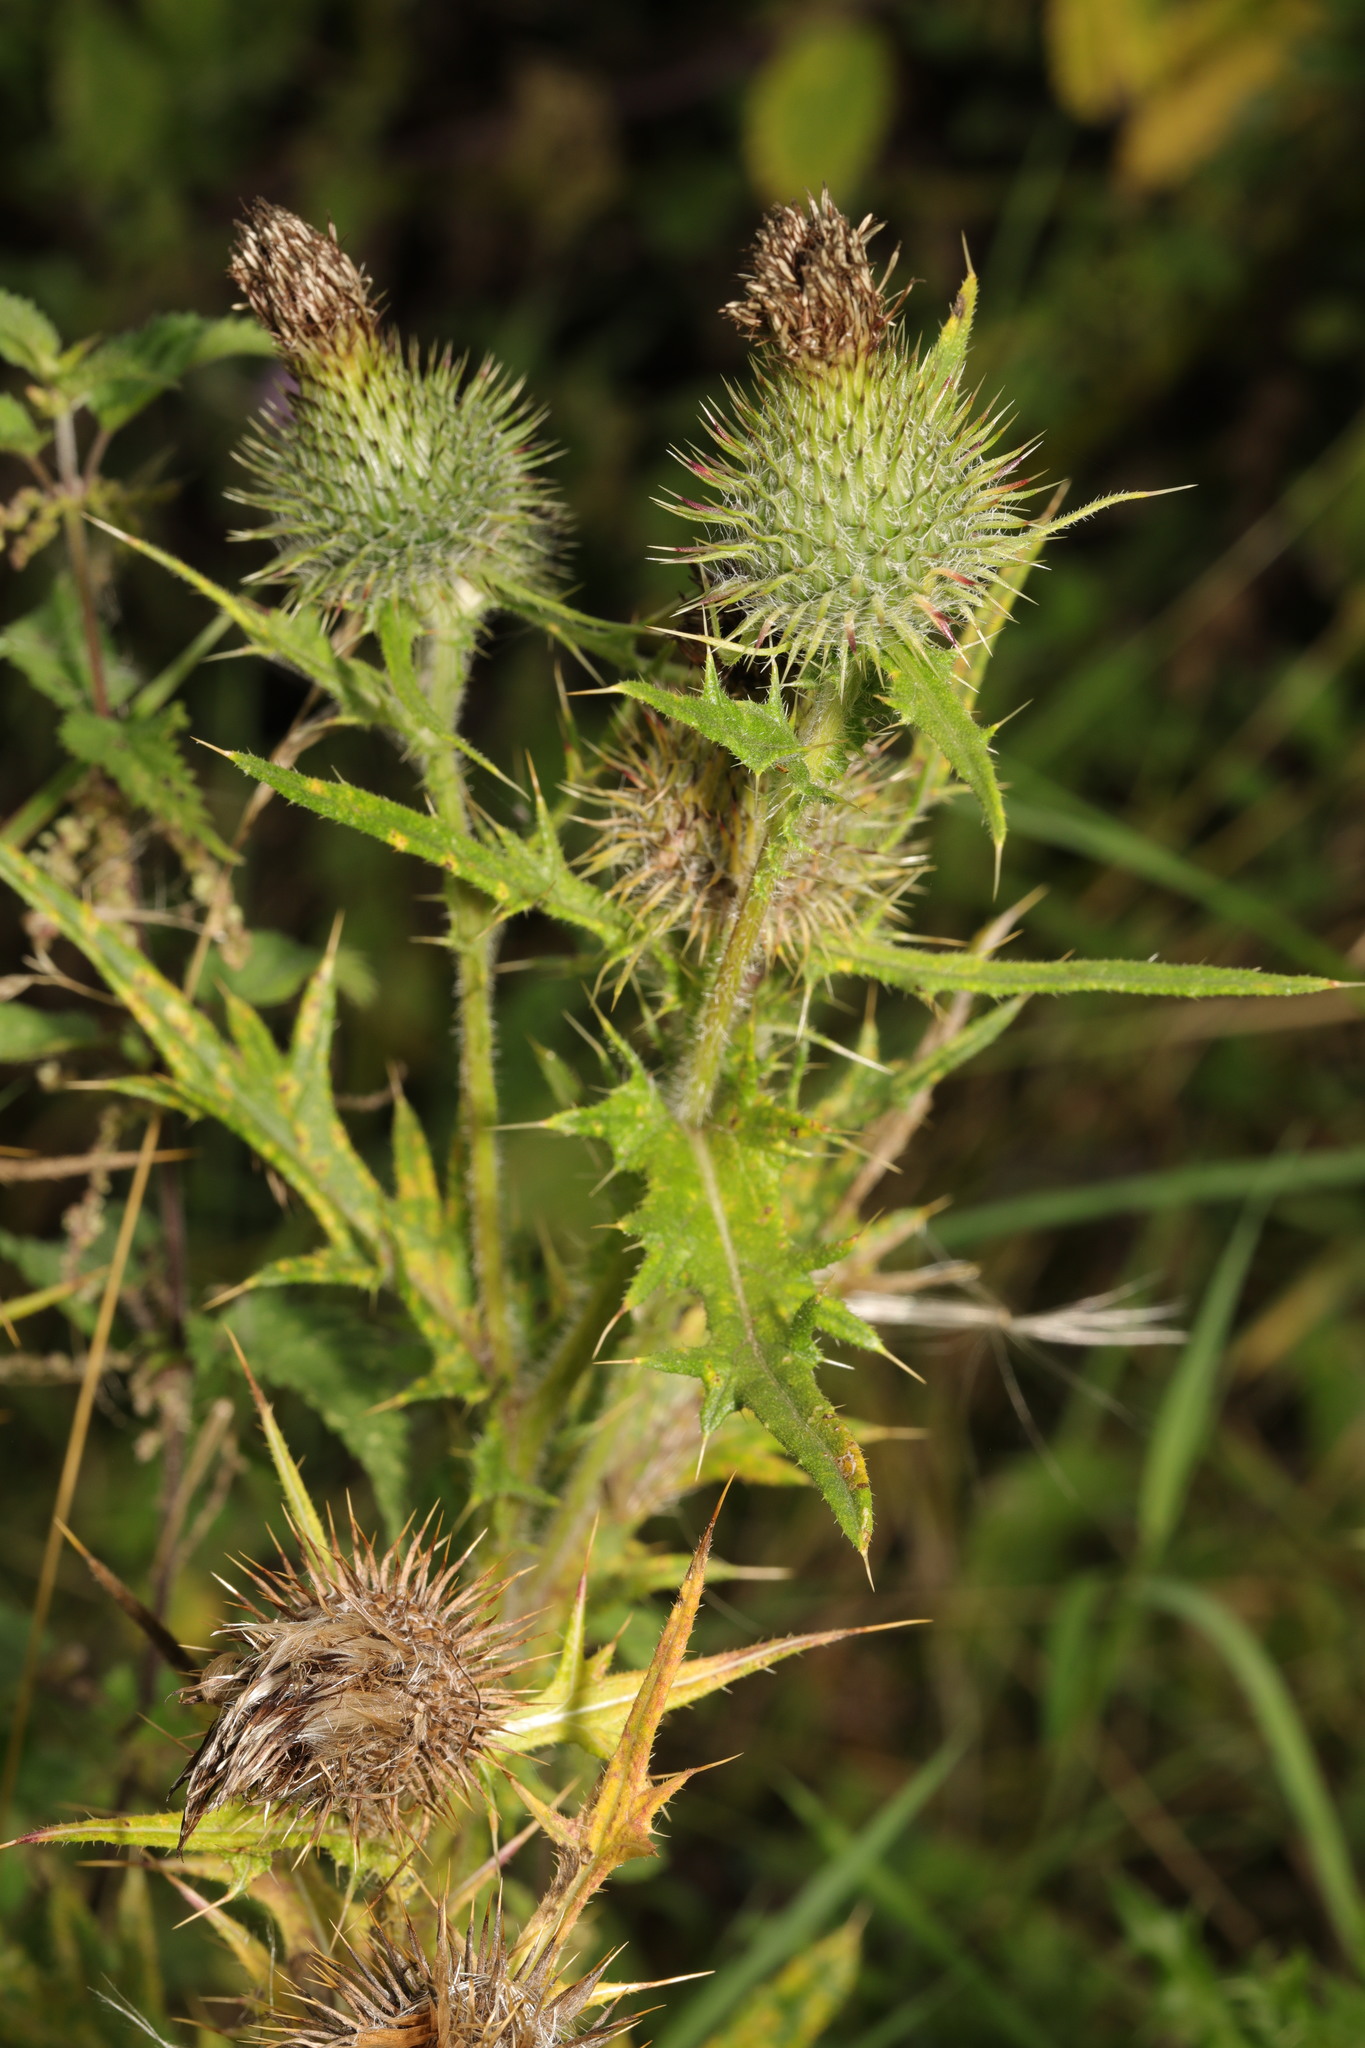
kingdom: Plantae
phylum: Tracheophyta
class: Magnoliopsida
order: Asterales
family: Asteraceae
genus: Cirsium
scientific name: Cirsium vulgare
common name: Bull thistle
